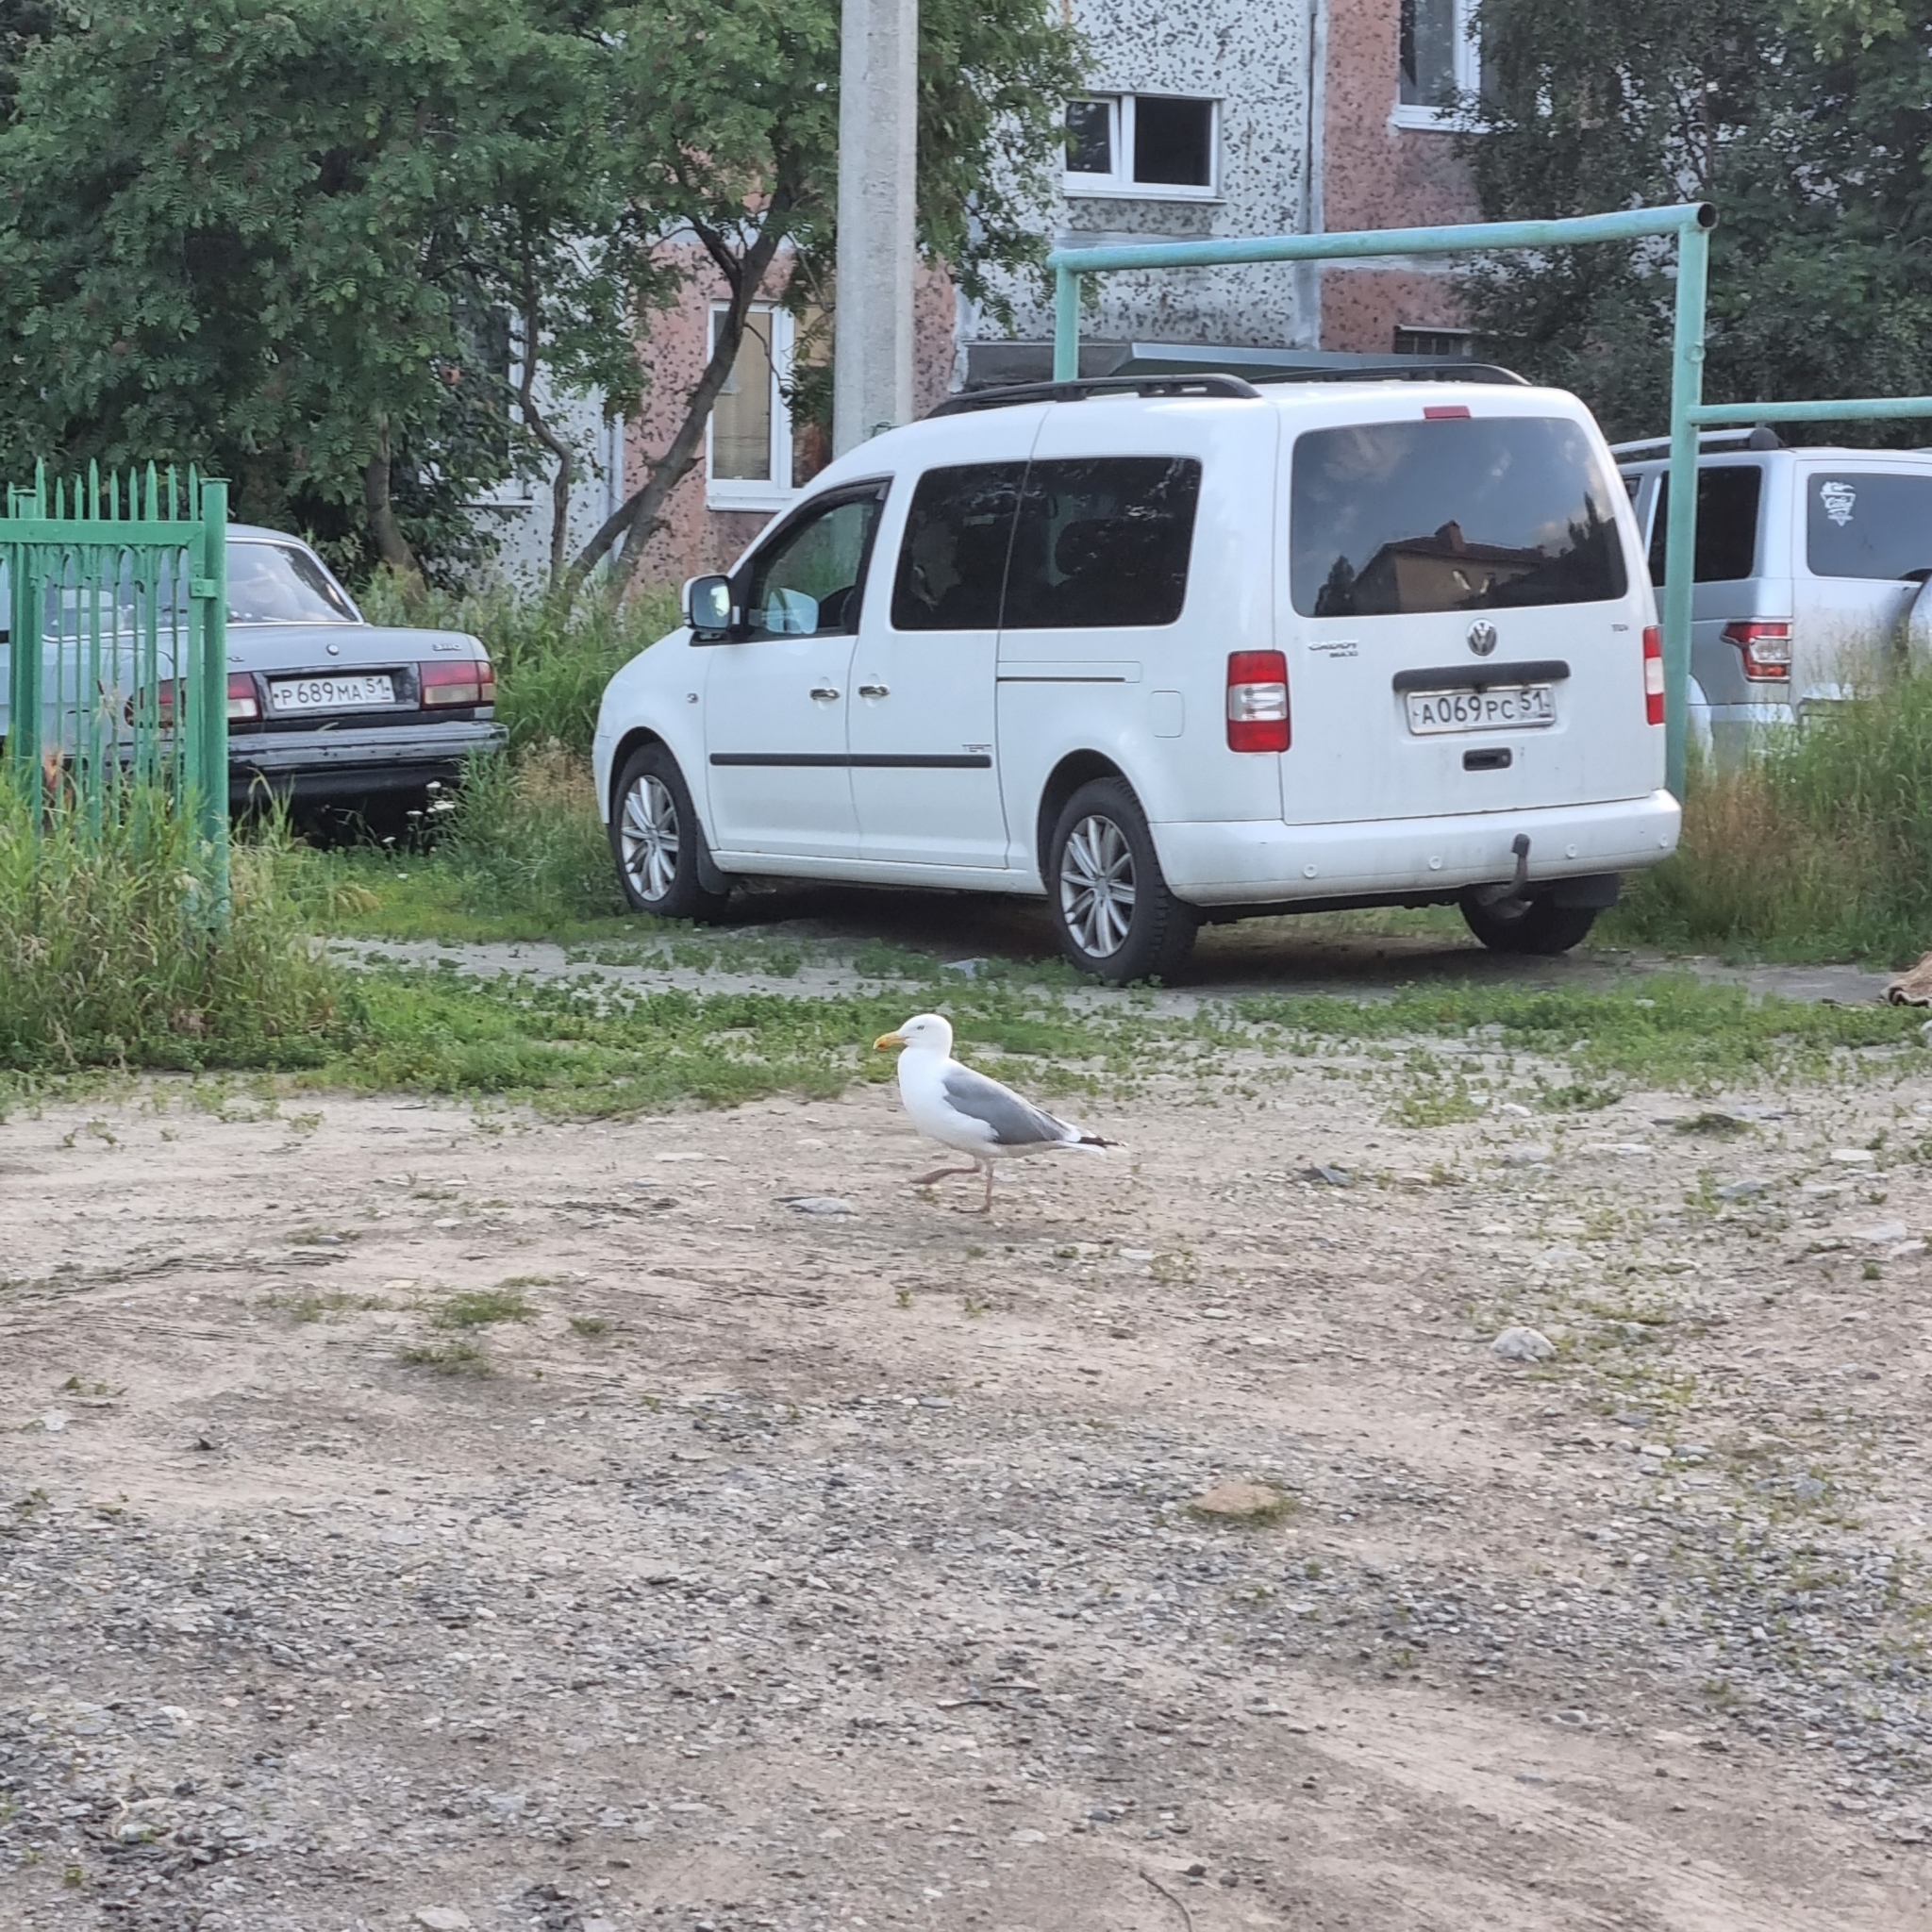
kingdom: Animalia
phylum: Chordata
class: Aves
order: Charadriiformes
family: Laridae
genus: Larus
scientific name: Larus argentatus
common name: Herring gull
